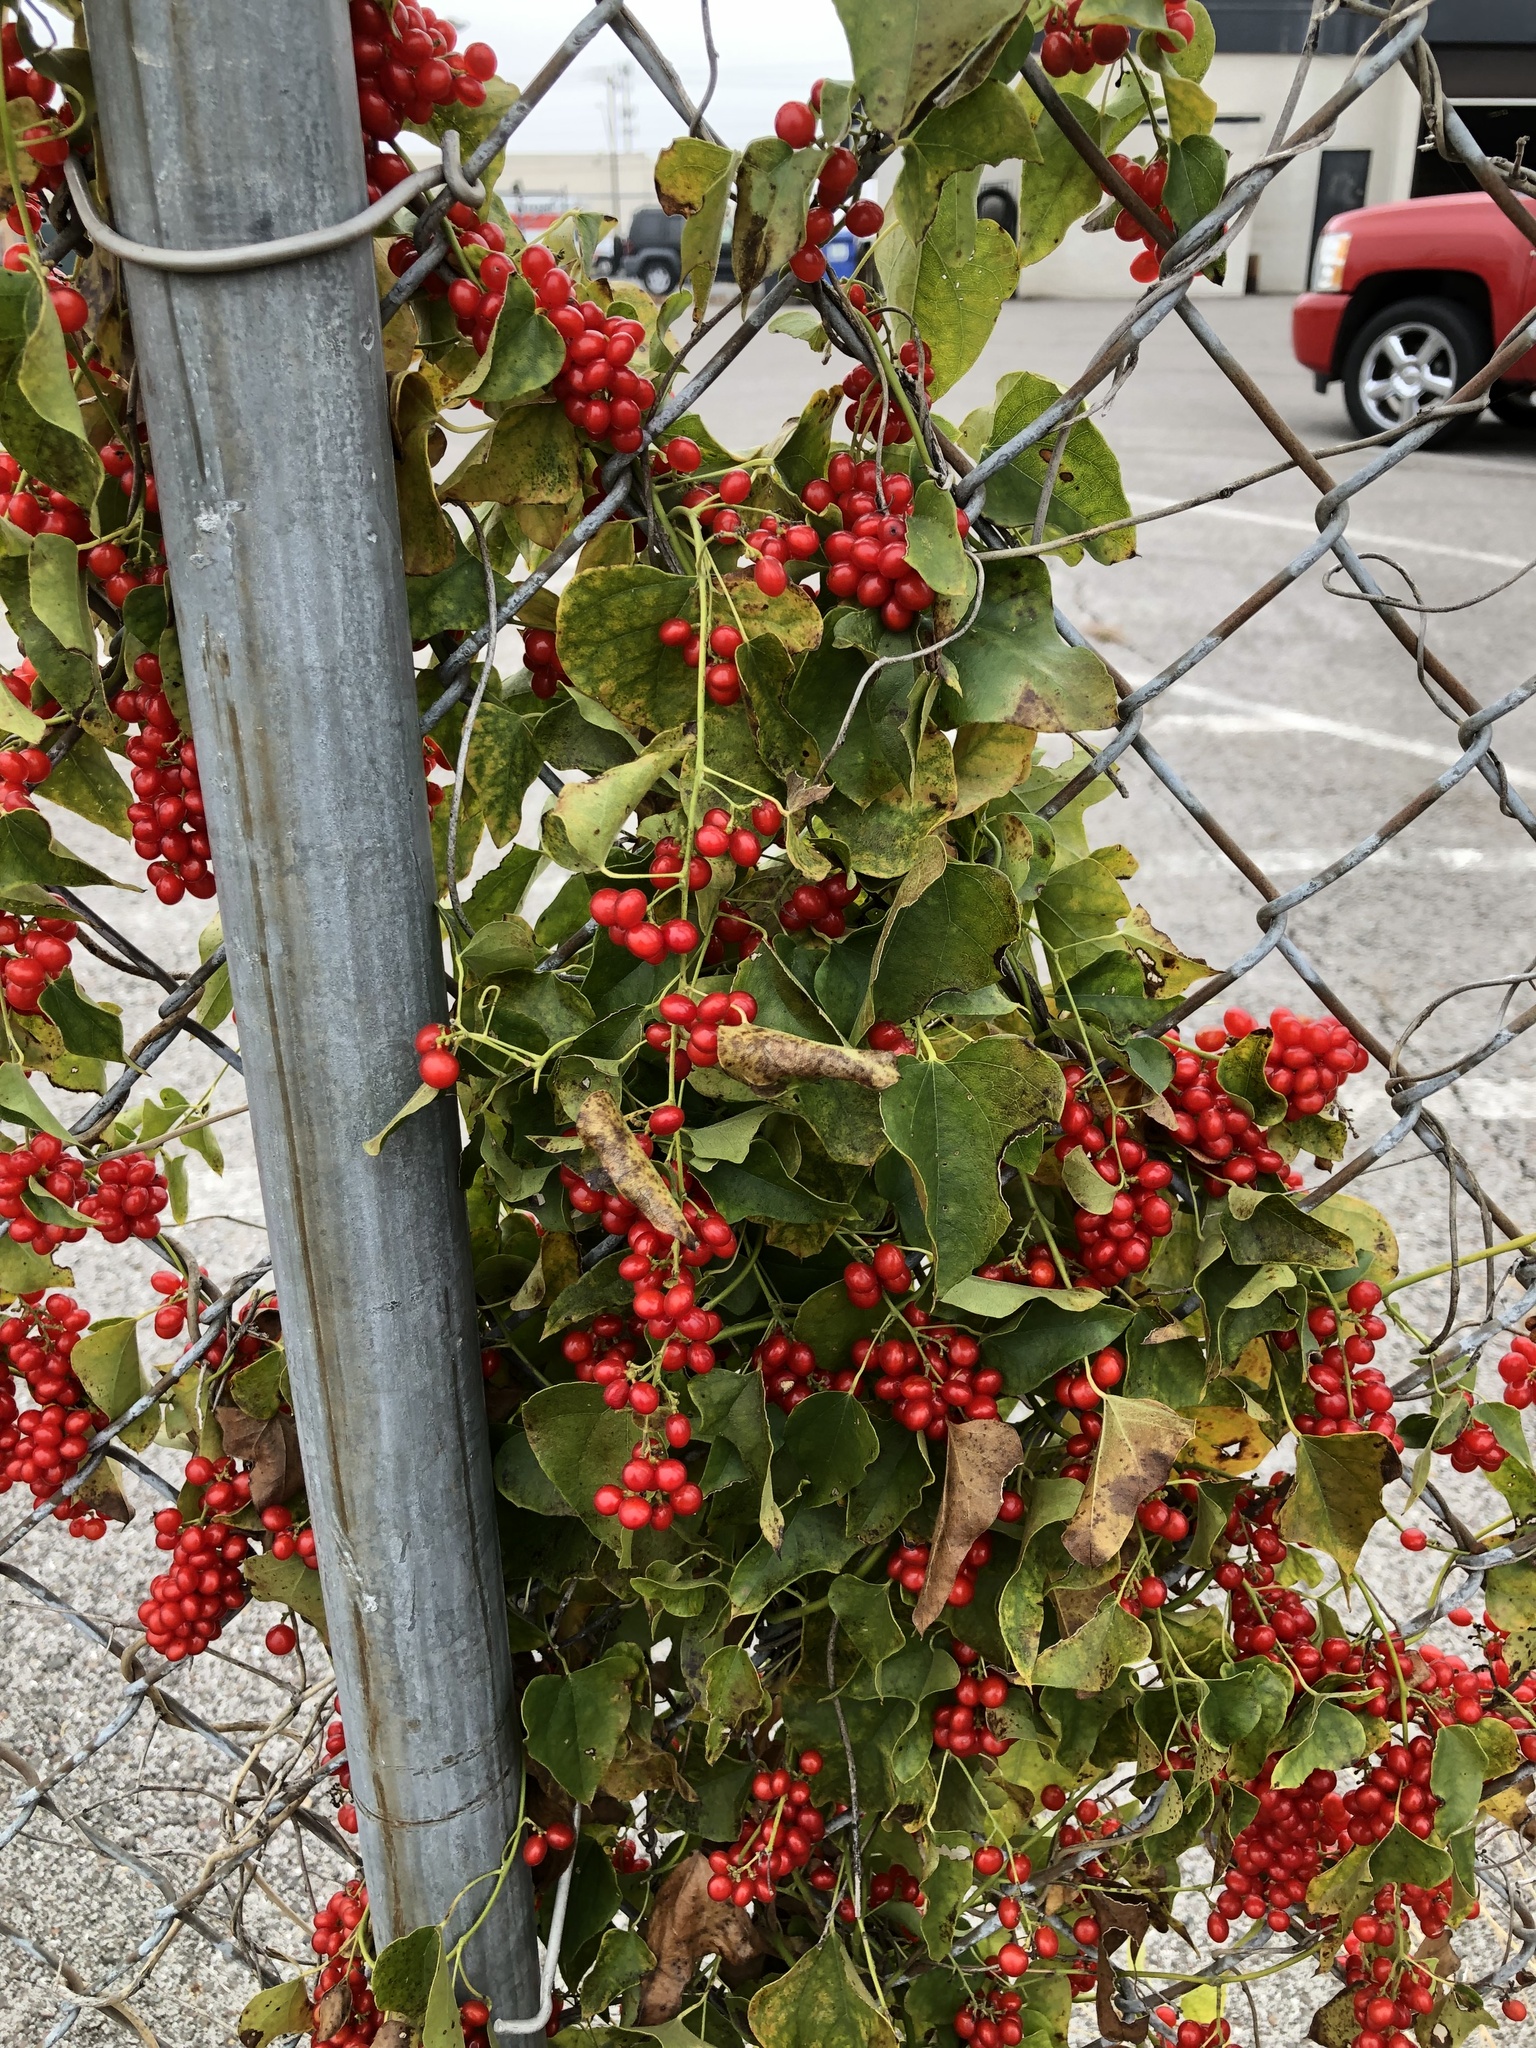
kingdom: Plantae
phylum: Tracheophyta
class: Magnoliopsida
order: Ranunculales
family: Menispermaceae
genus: Cocculus
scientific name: Cocculus carolinus
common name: Carolina moonseed
